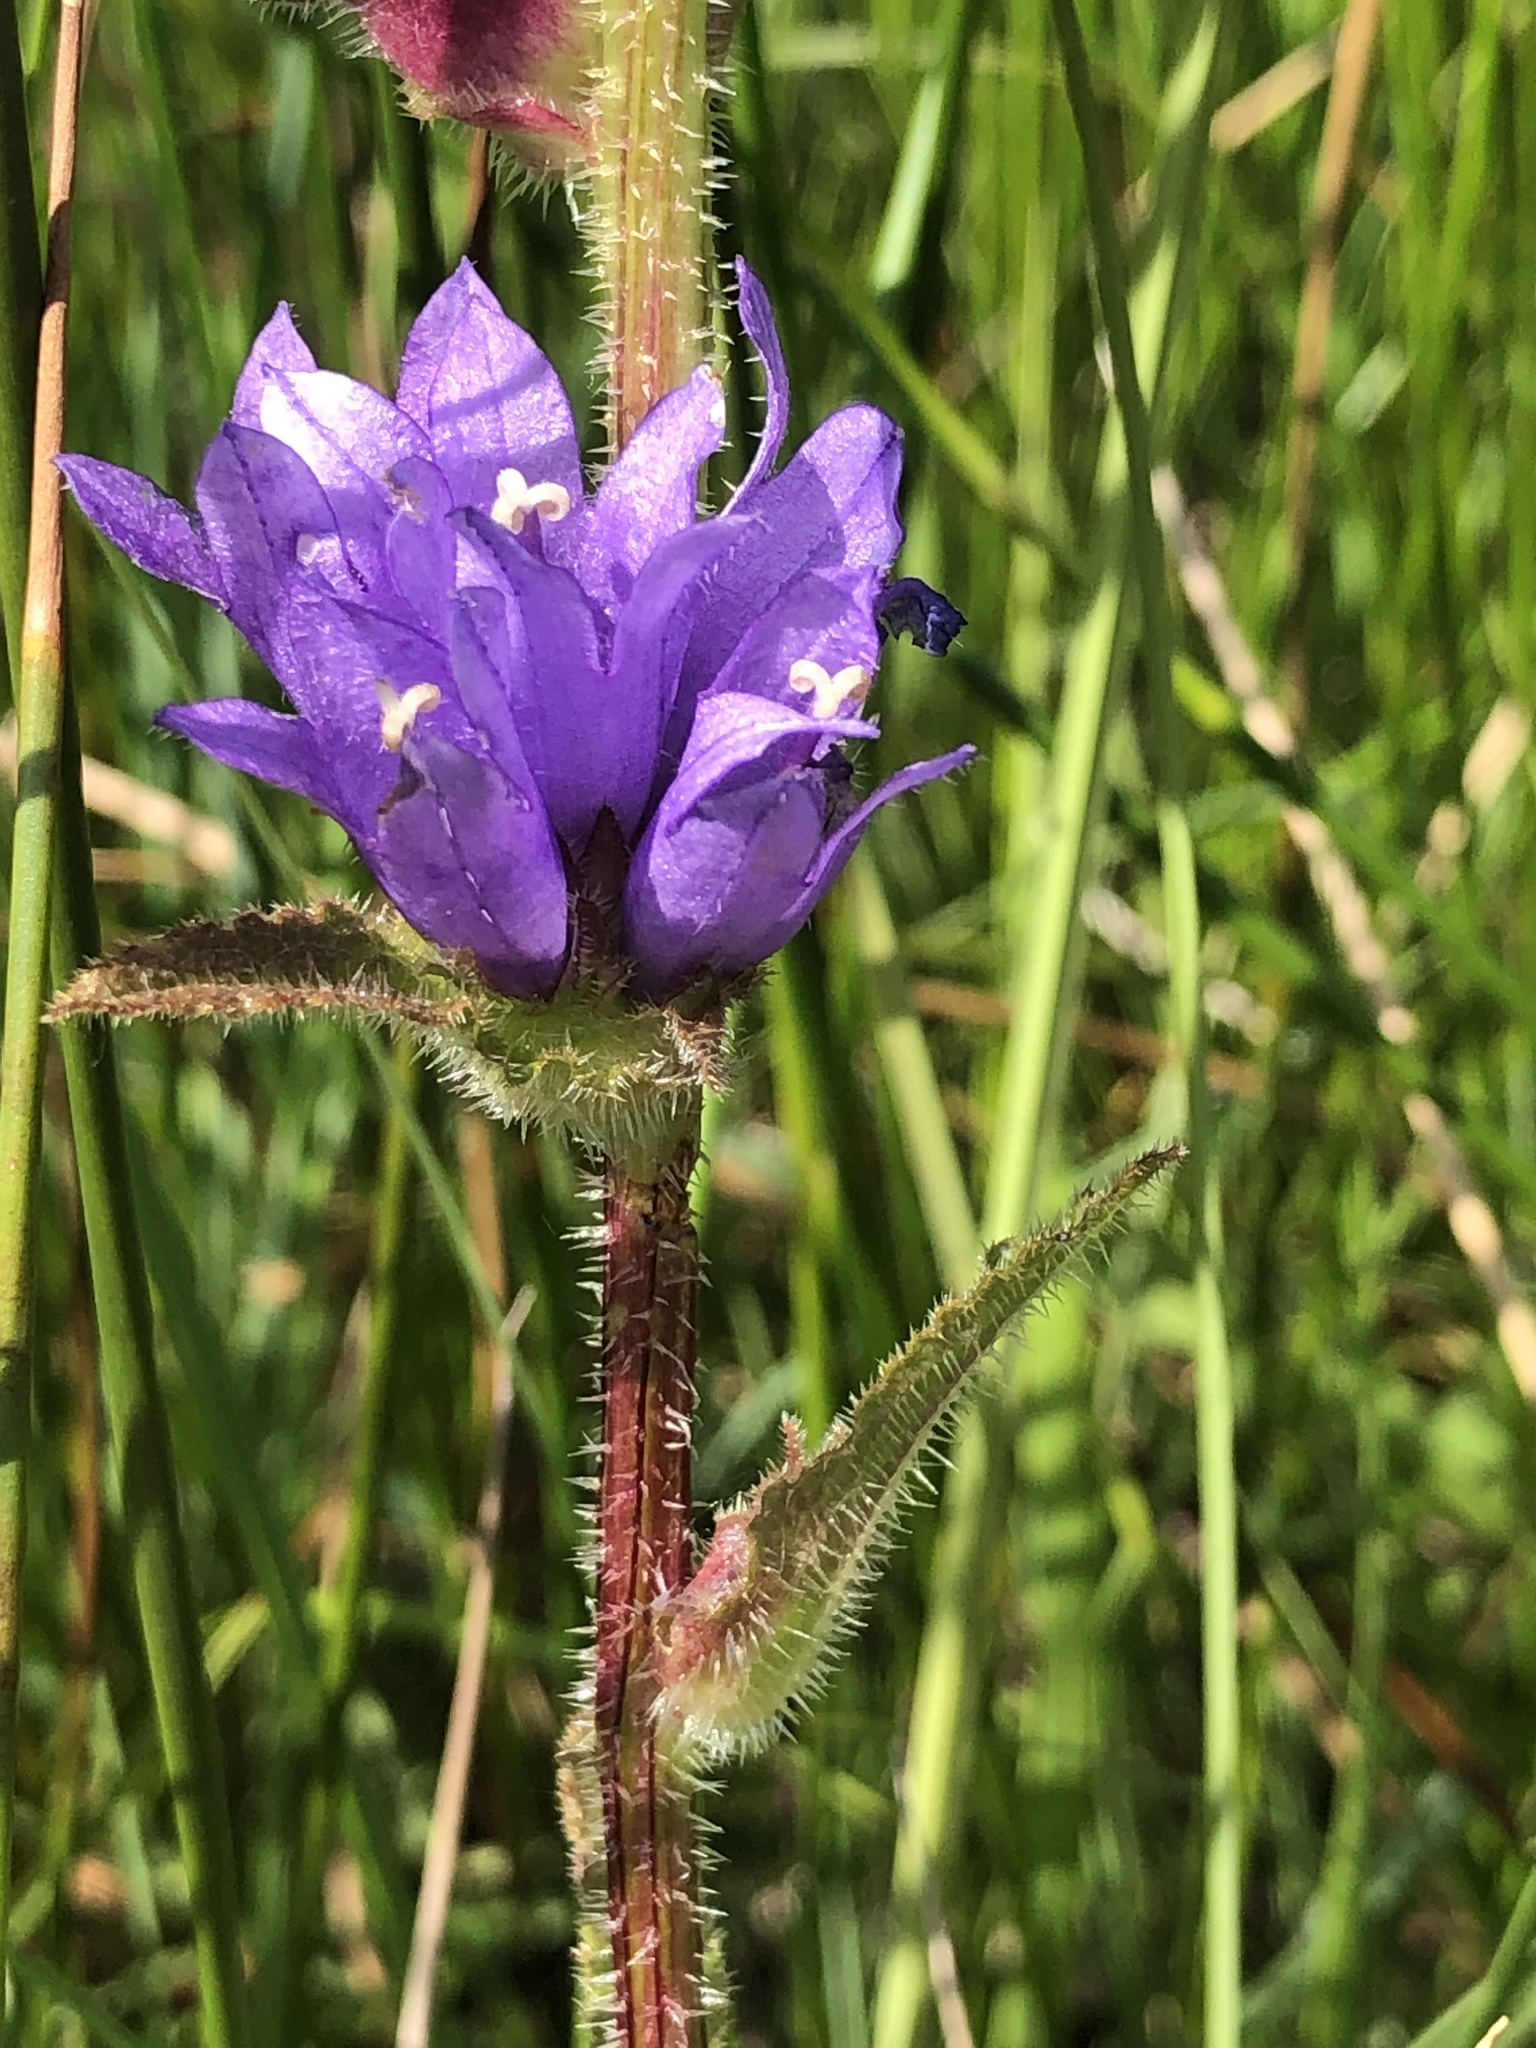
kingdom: Plantae
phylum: Tracheophyta
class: Magnoliopsida
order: Asterales
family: Campanulaceae
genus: Campanula
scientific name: Campanula glomerata
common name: Clustered bellflower
